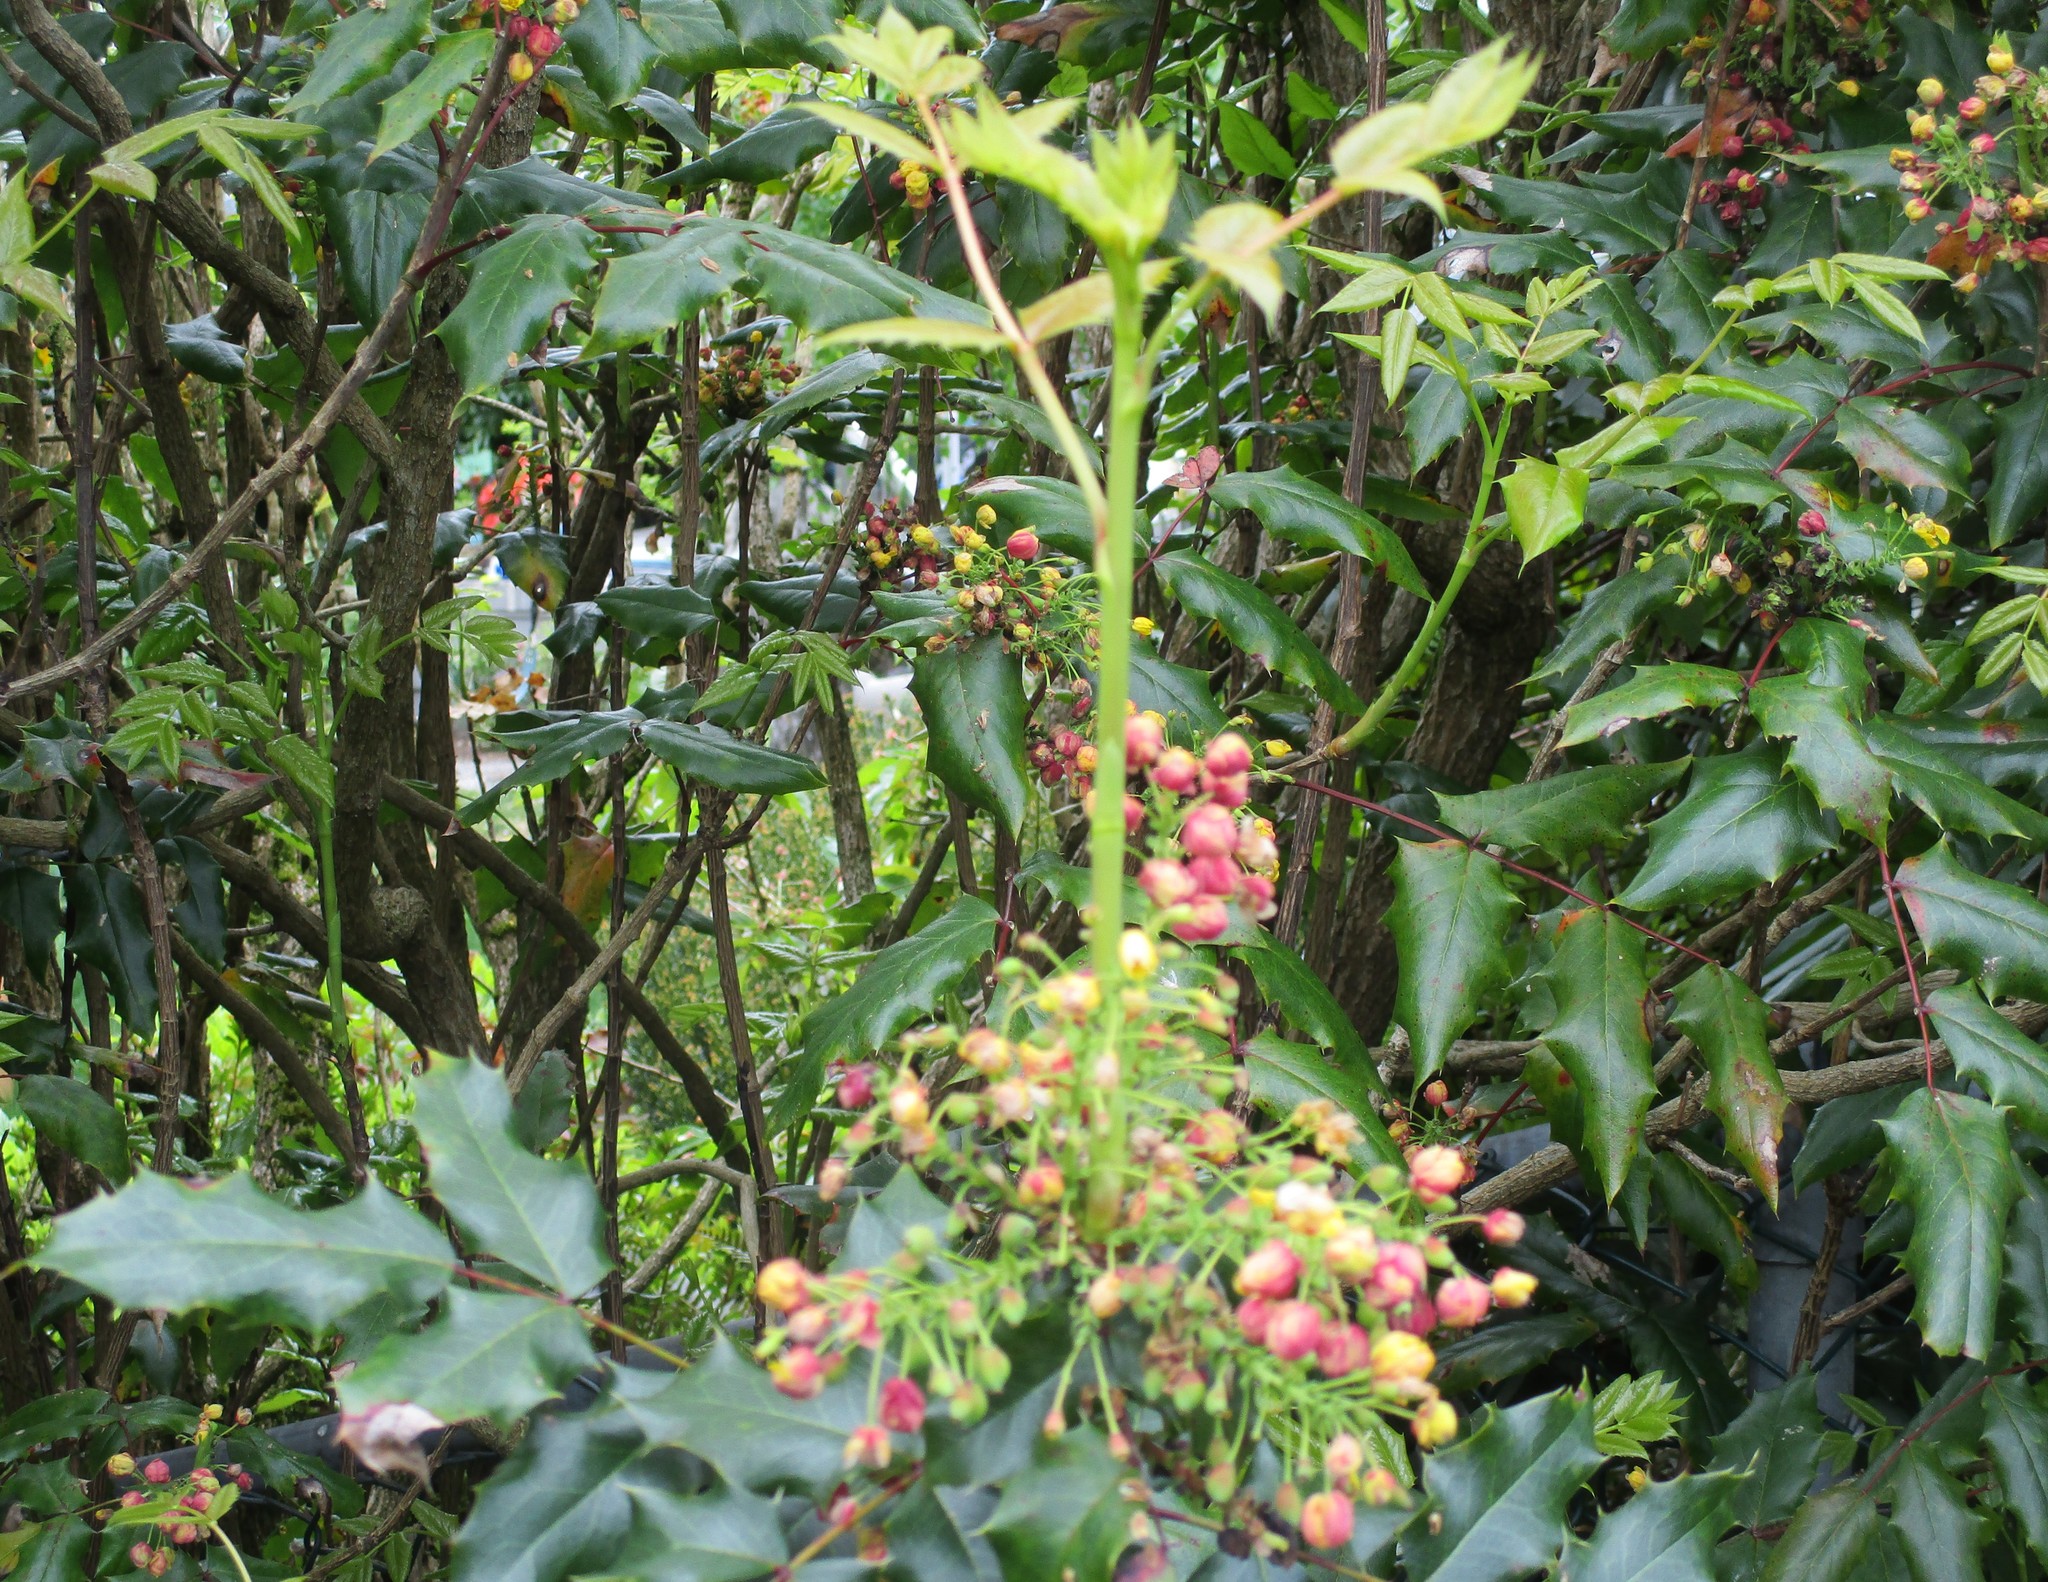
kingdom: Plantae
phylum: Tracheophyta
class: Magnoliopsida
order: Ranunculales
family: Berberidaceae
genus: Mahonia
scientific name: Mahonia aquifolium
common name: Oregon-grape
